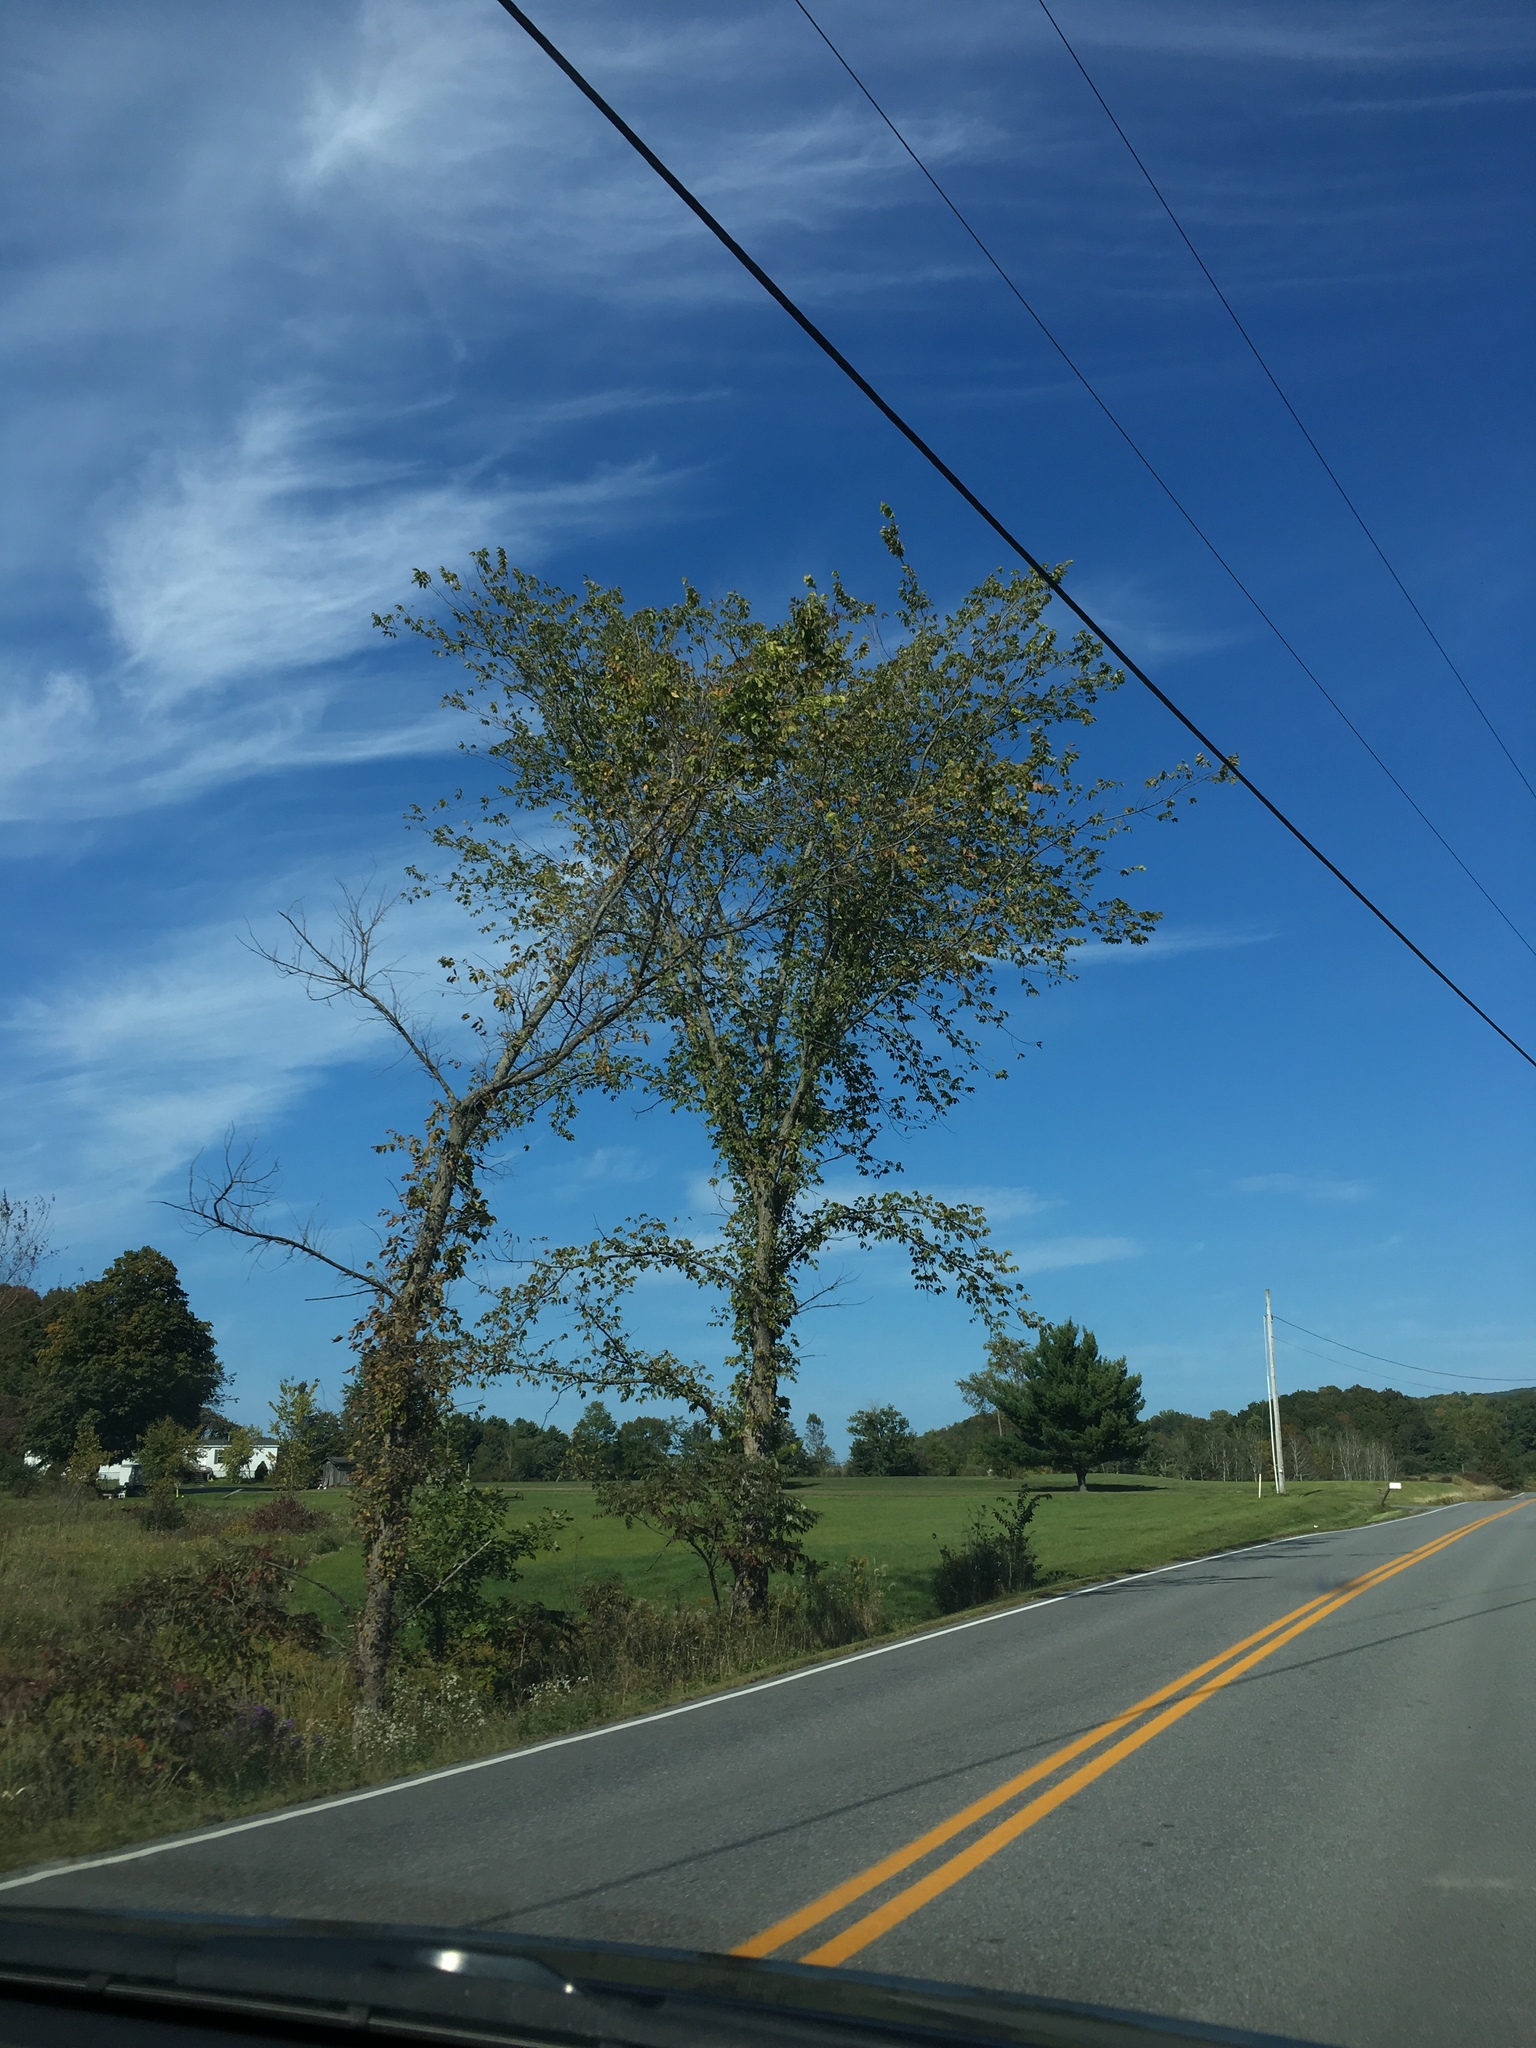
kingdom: Plantae
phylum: Tracheophyta
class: Magnoliopsida
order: Rosales
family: Ulmaceae
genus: Ulmus
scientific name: Ulmus americana
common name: American elm
